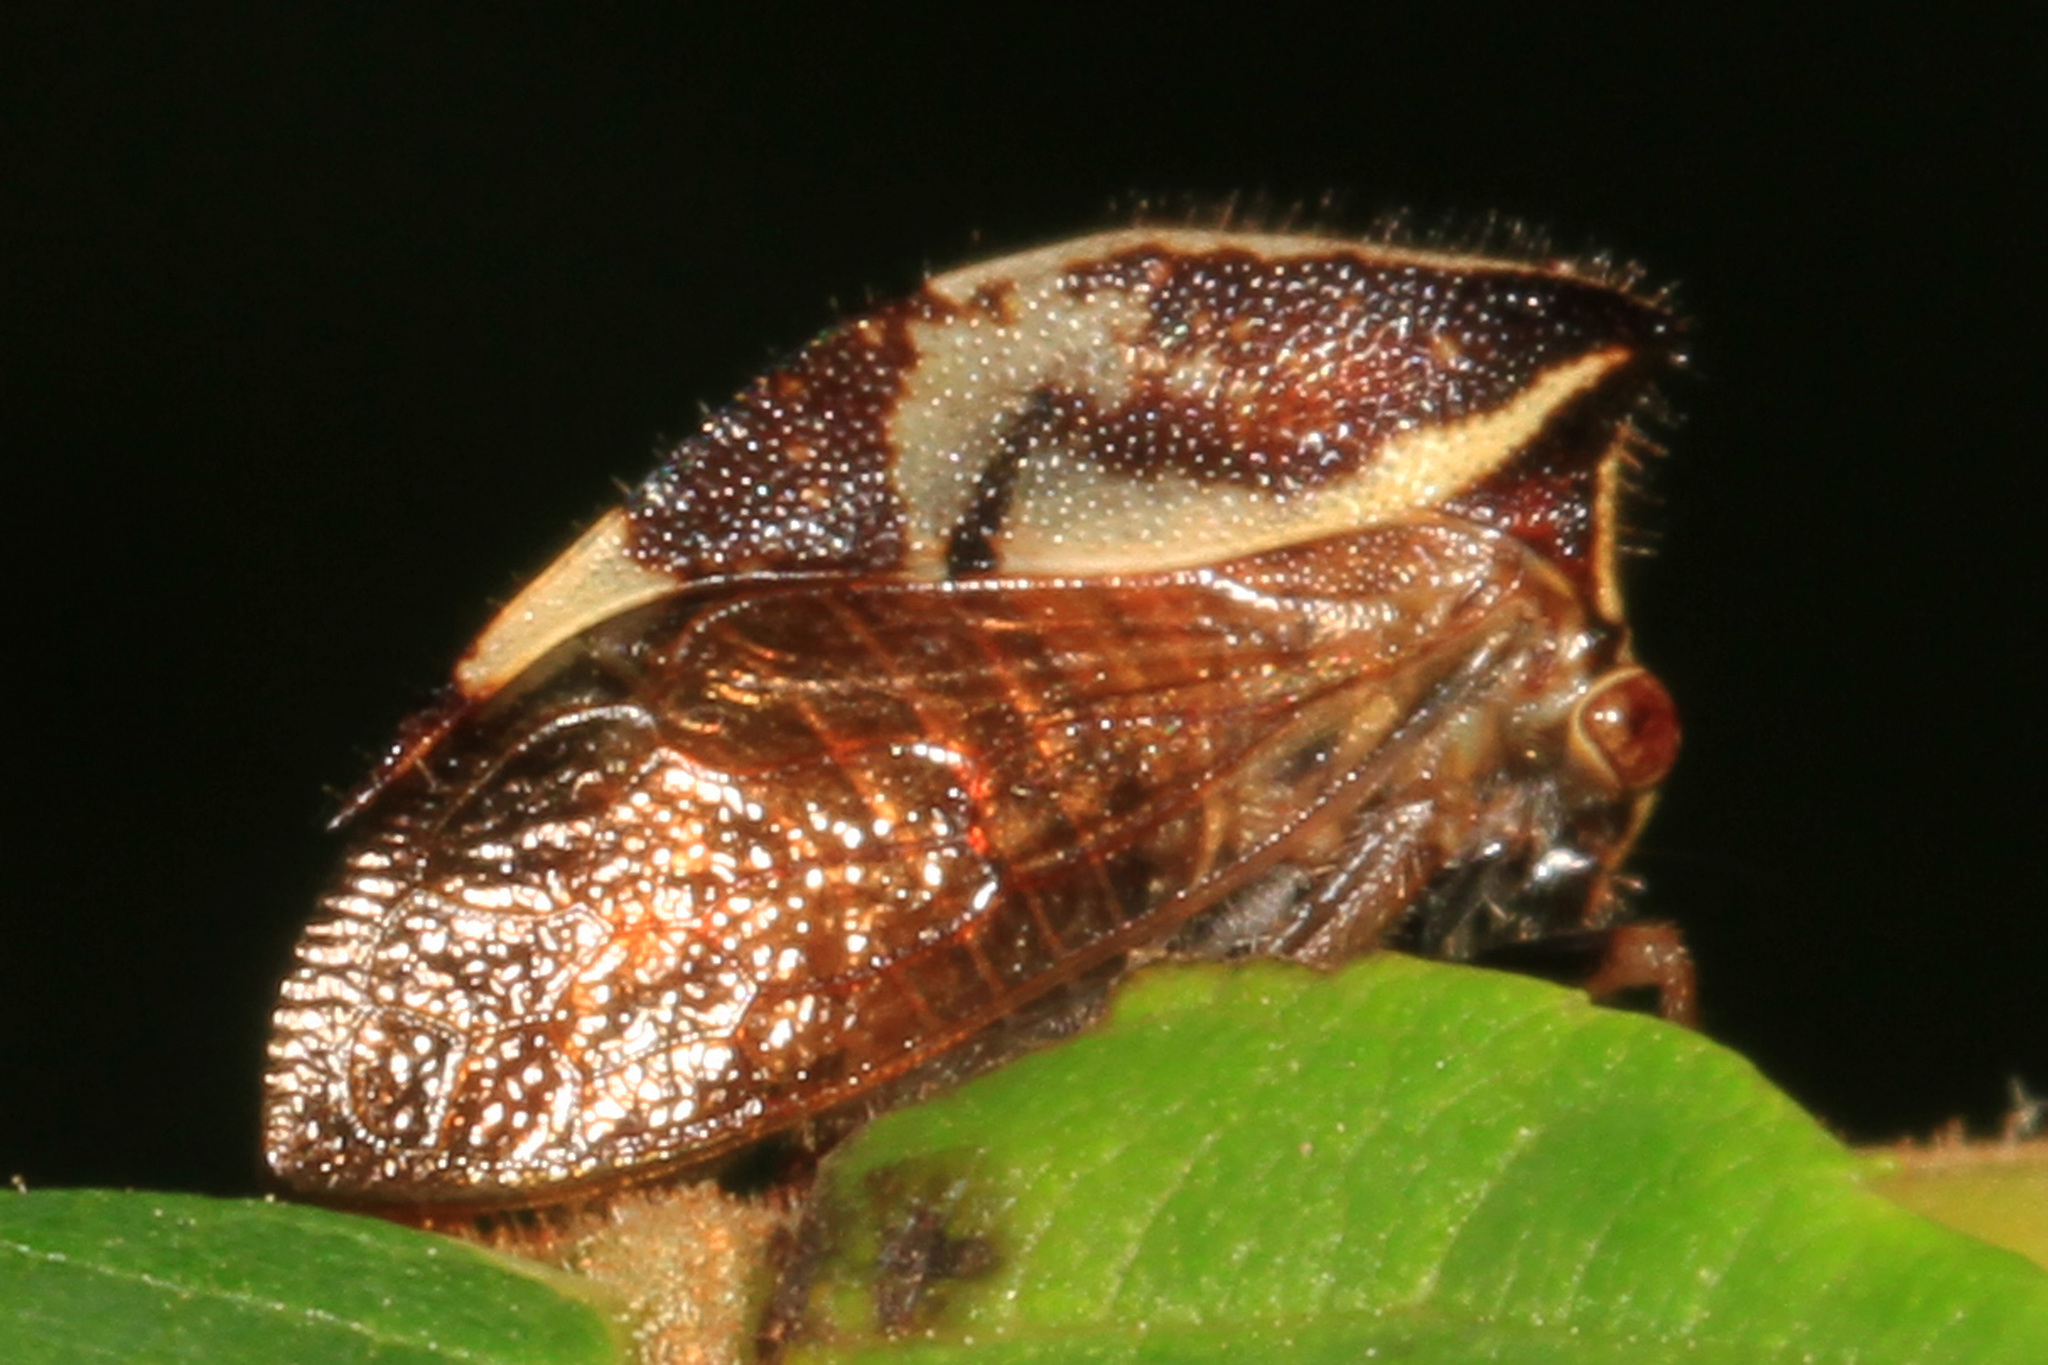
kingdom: Animalia
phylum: Arthropoda
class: Insecta
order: Hemiptera
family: Membracidae
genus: Stictocephala
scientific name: Stictocephala diceros
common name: Two-horned treehopper
